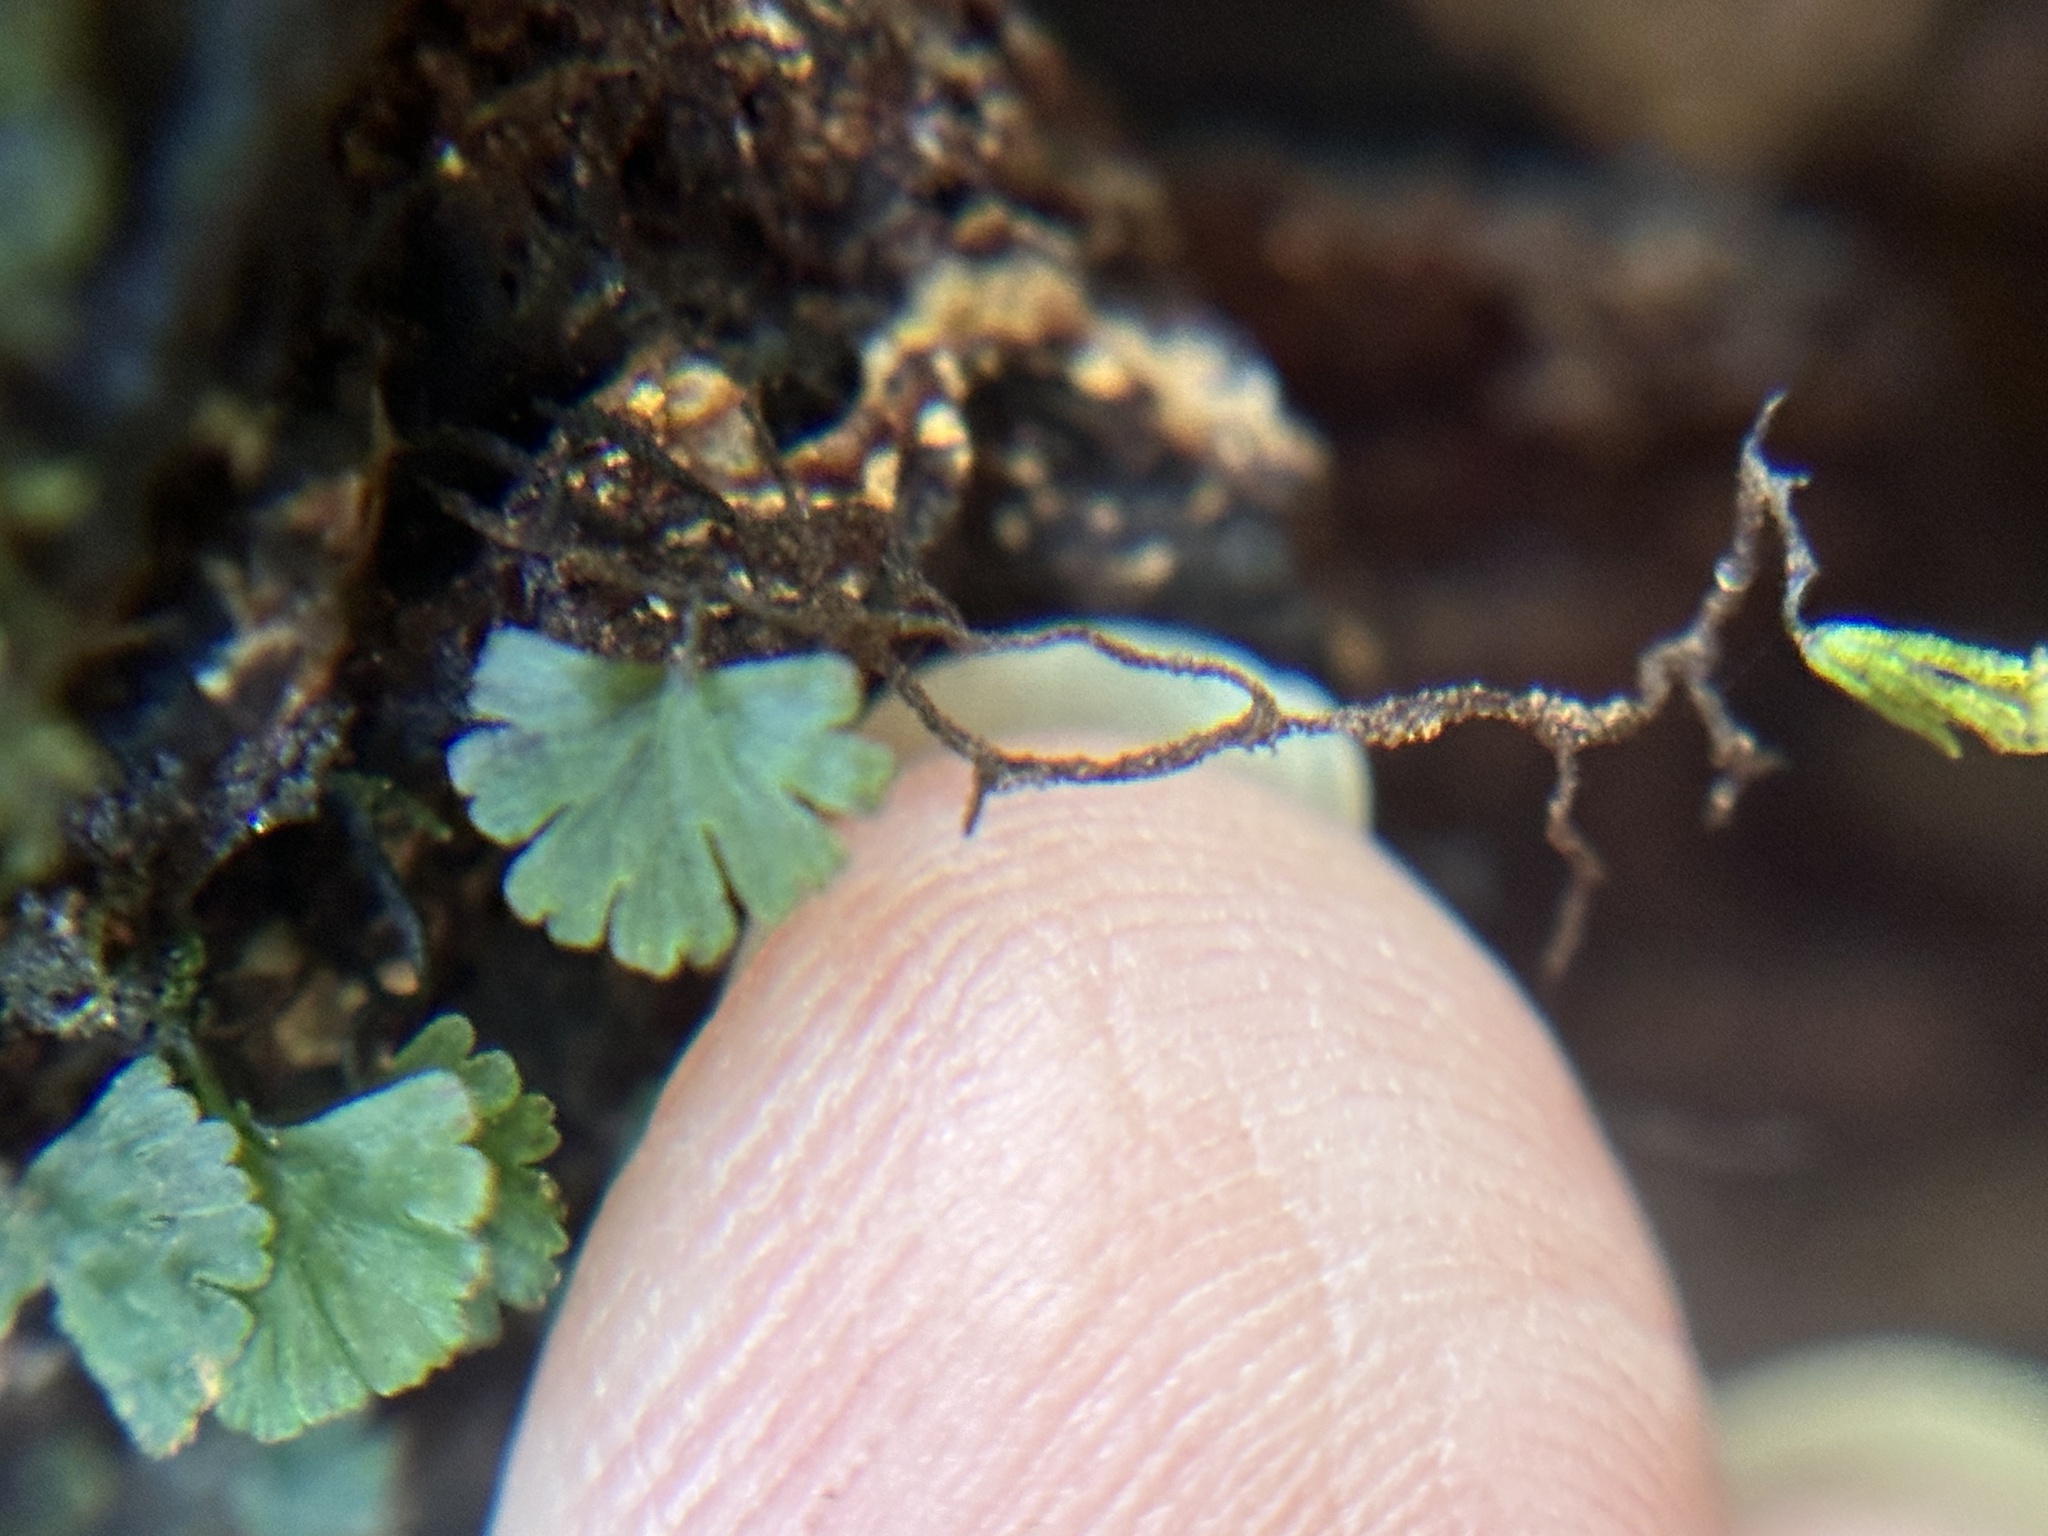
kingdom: Plantae
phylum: Tracheophyta
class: Polypodiopsida
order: Hymenophyllales
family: Hymenophyllaceae
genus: Crepidomanes
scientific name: Crepidomanes parvulum
